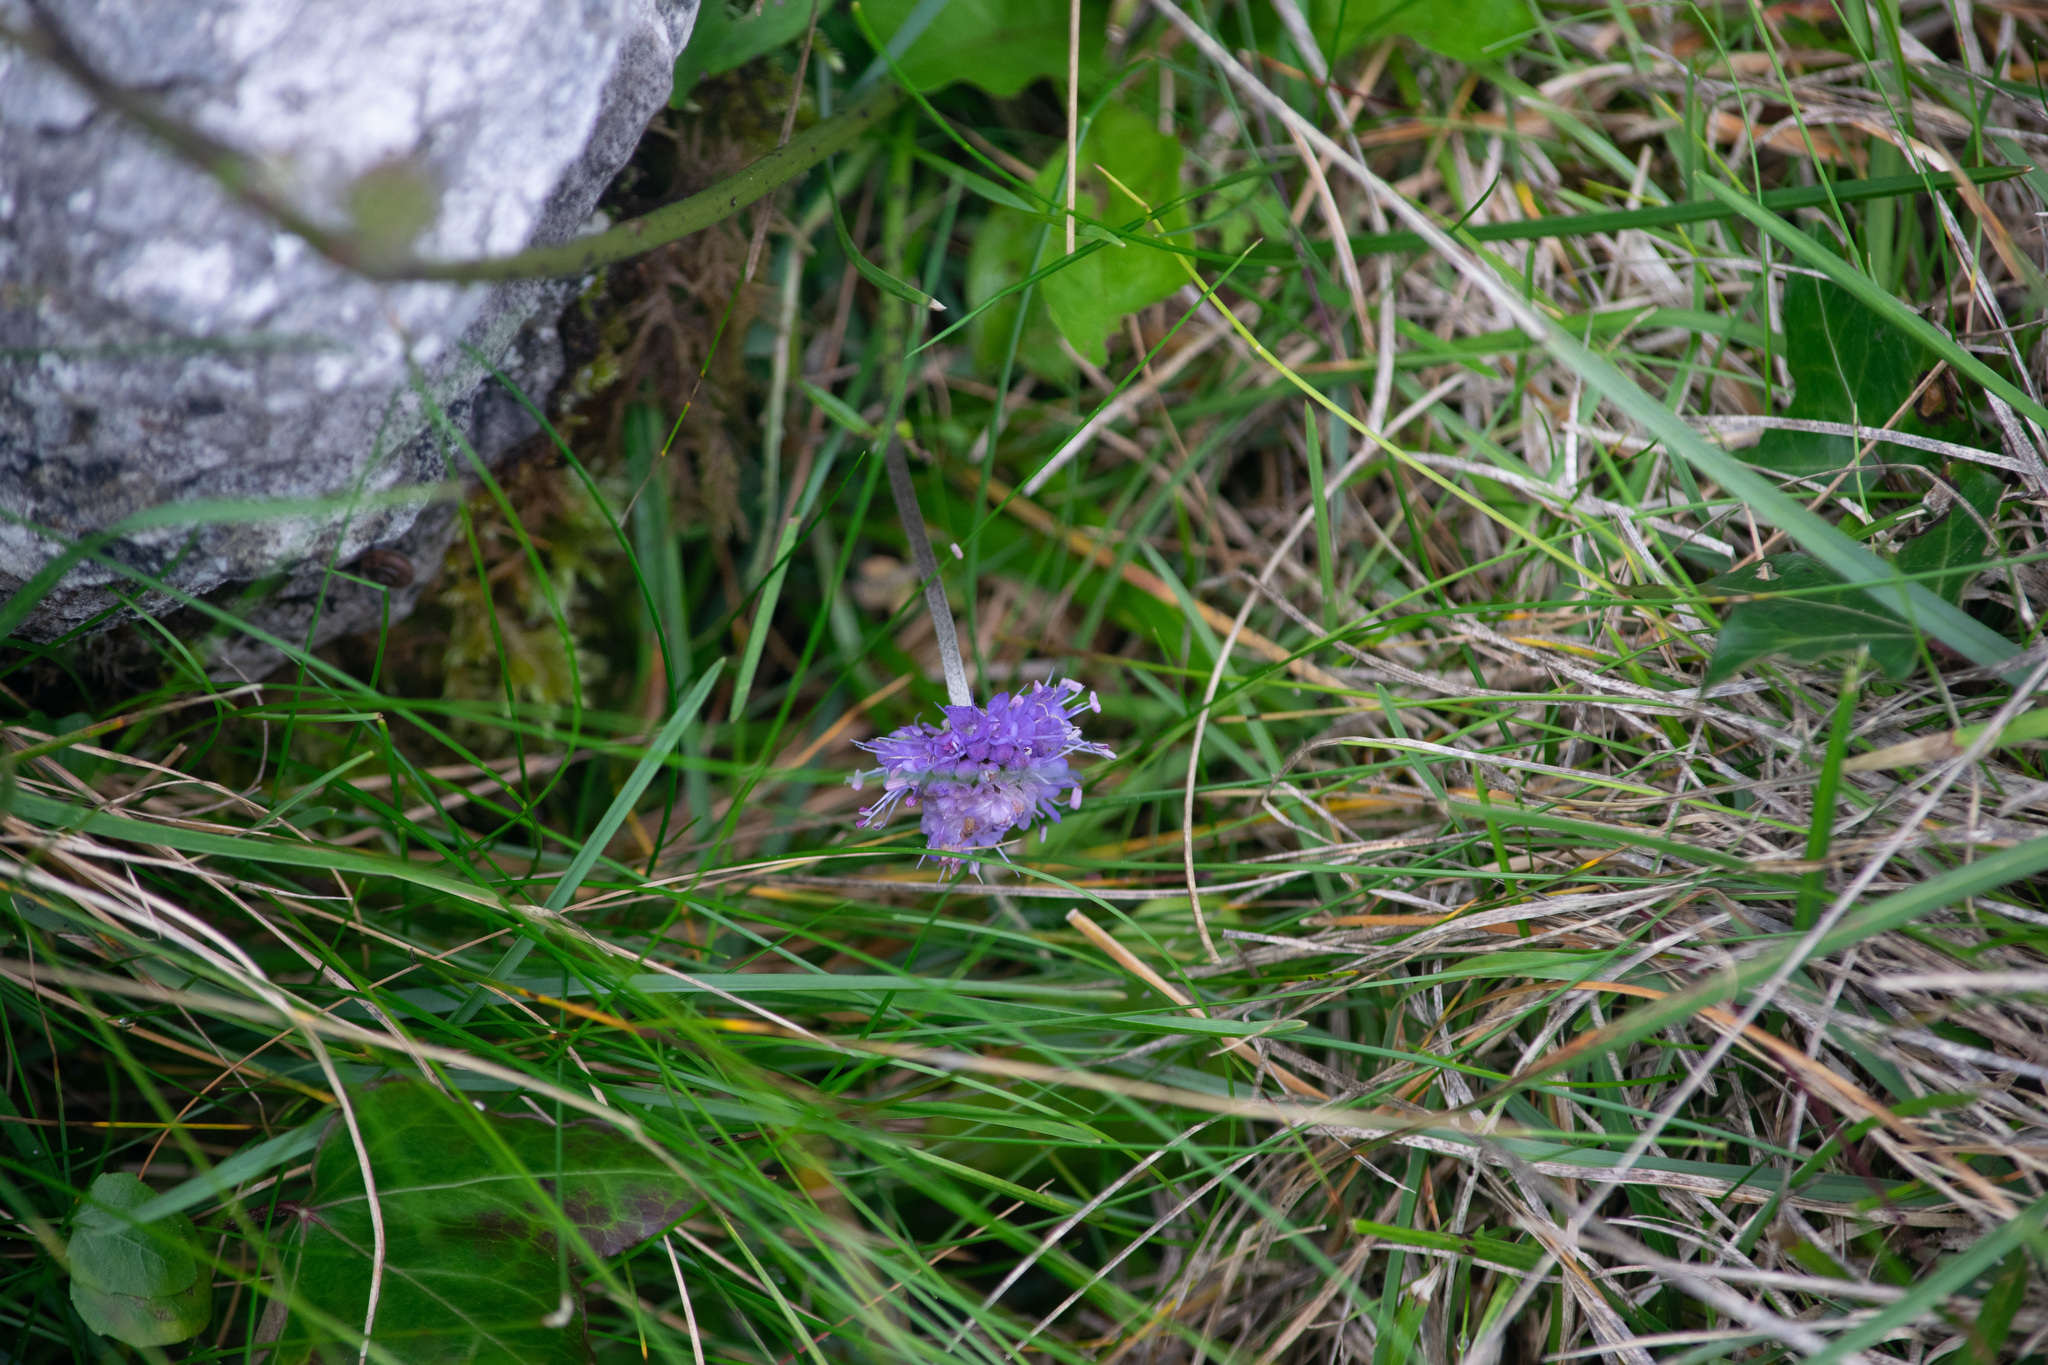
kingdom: Plantae
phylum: Tracheophyta
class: Magnoliopsida
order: Dipsacales
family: Caprifoliaceae
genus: Succisa
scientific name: Succisa pratensis
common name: Devil's-bit
